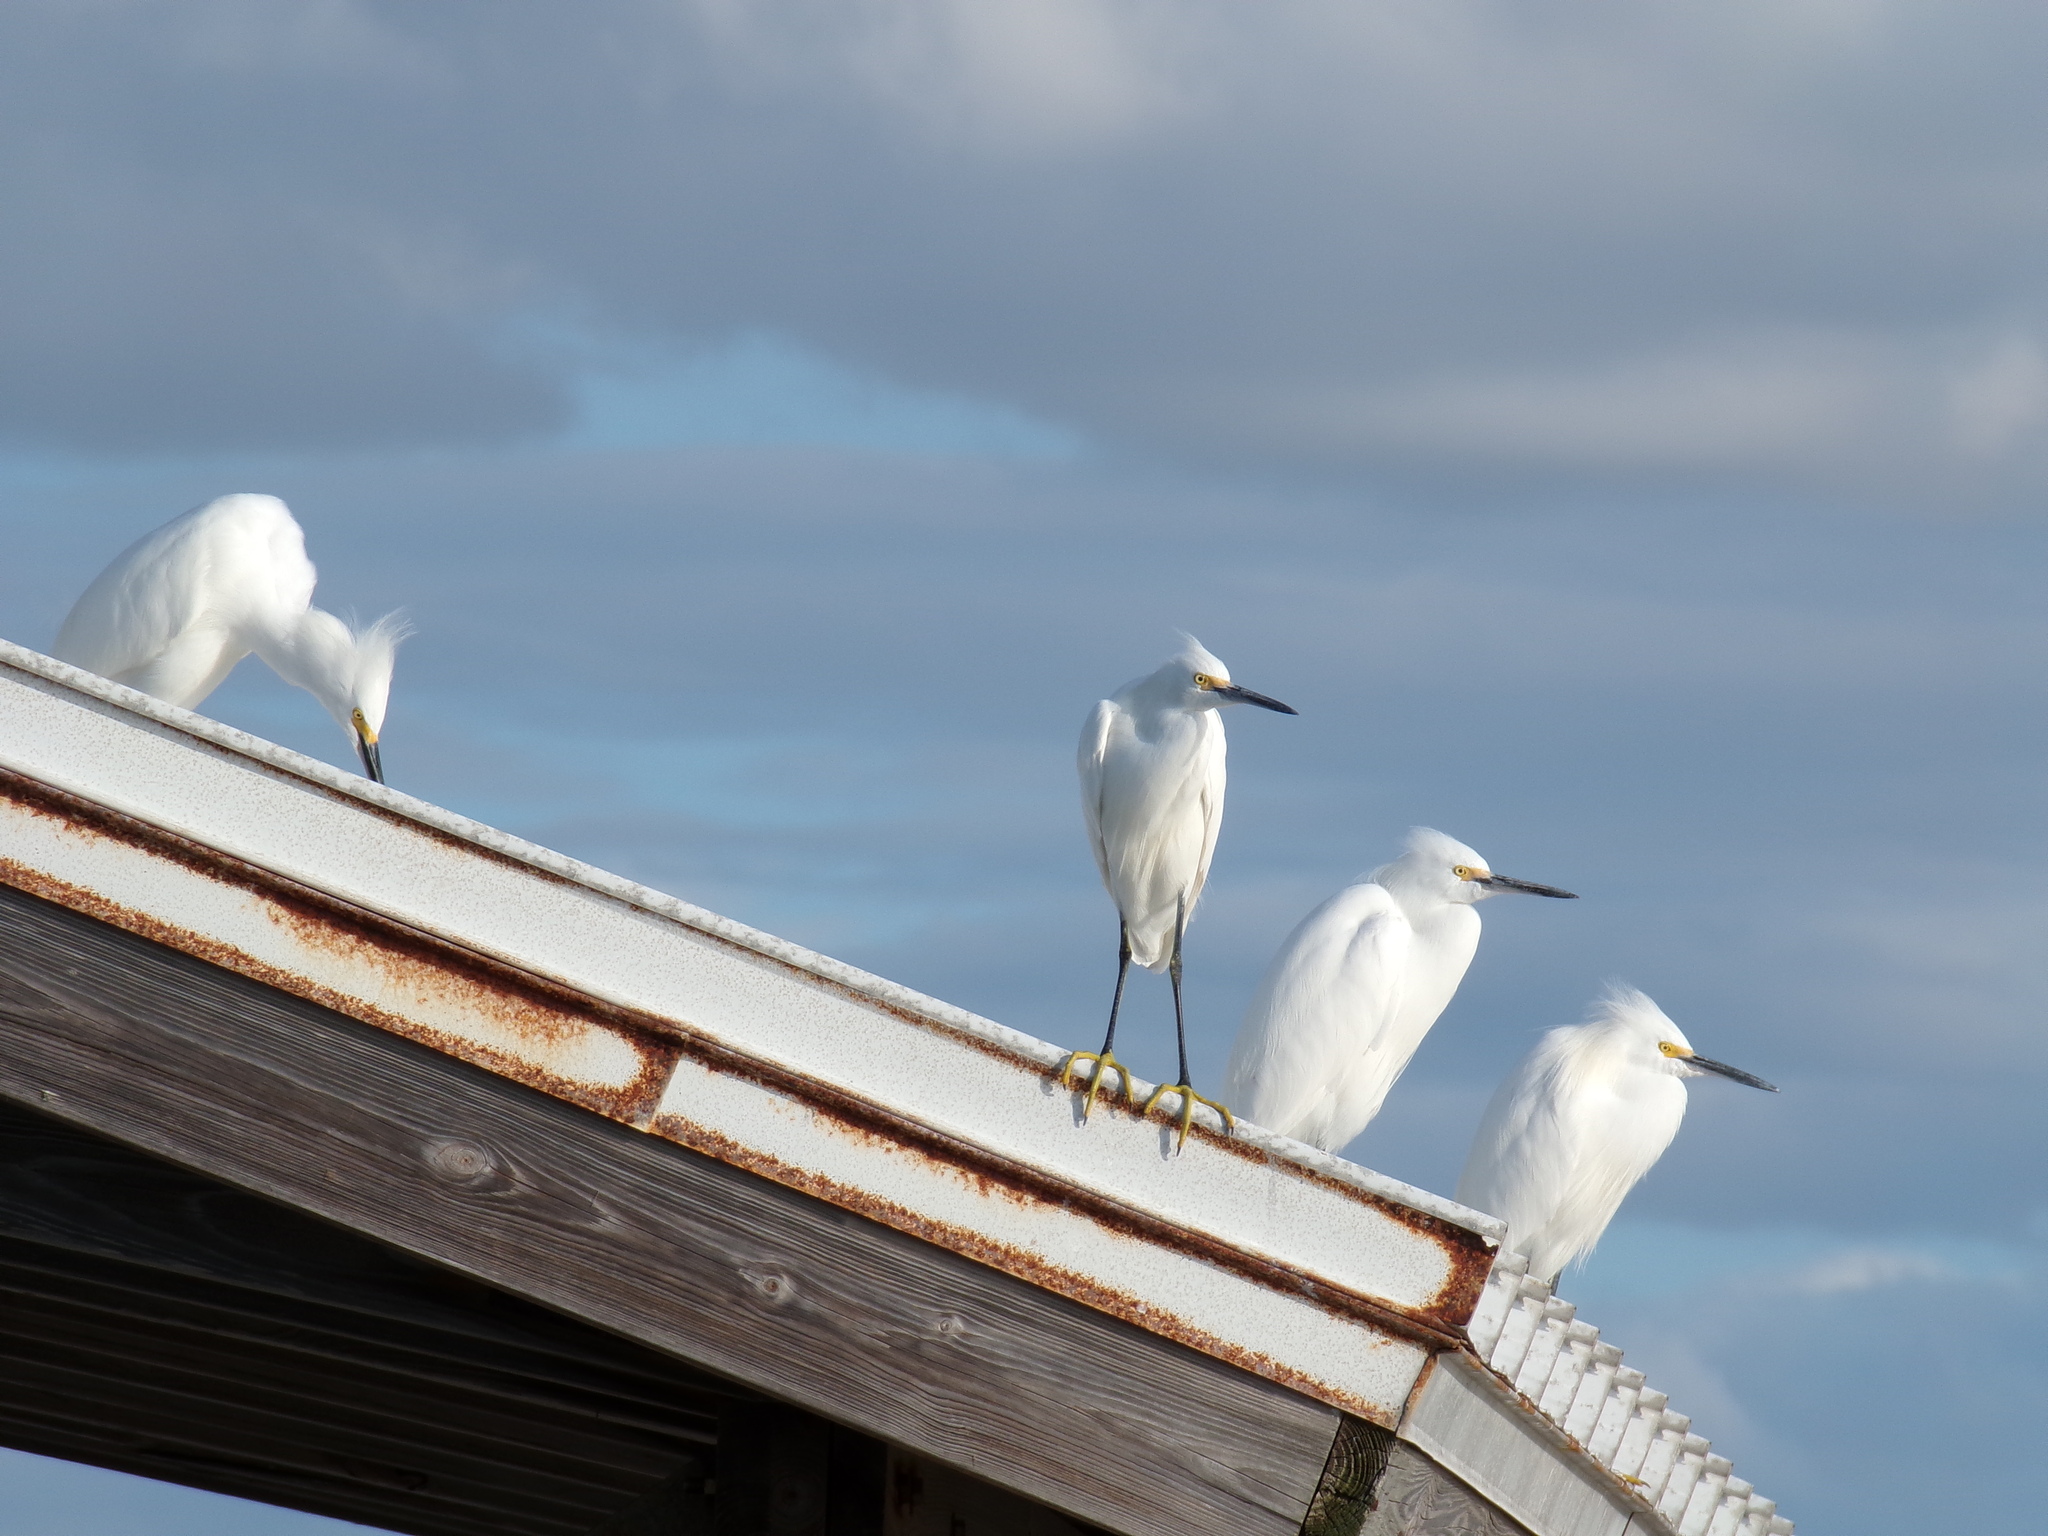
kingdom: Animalia
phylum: Chordata
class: Aves
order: Pelecaniformes
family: Ardeidae
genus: Egretta
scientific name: Egretta thula
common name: Snowy egret
